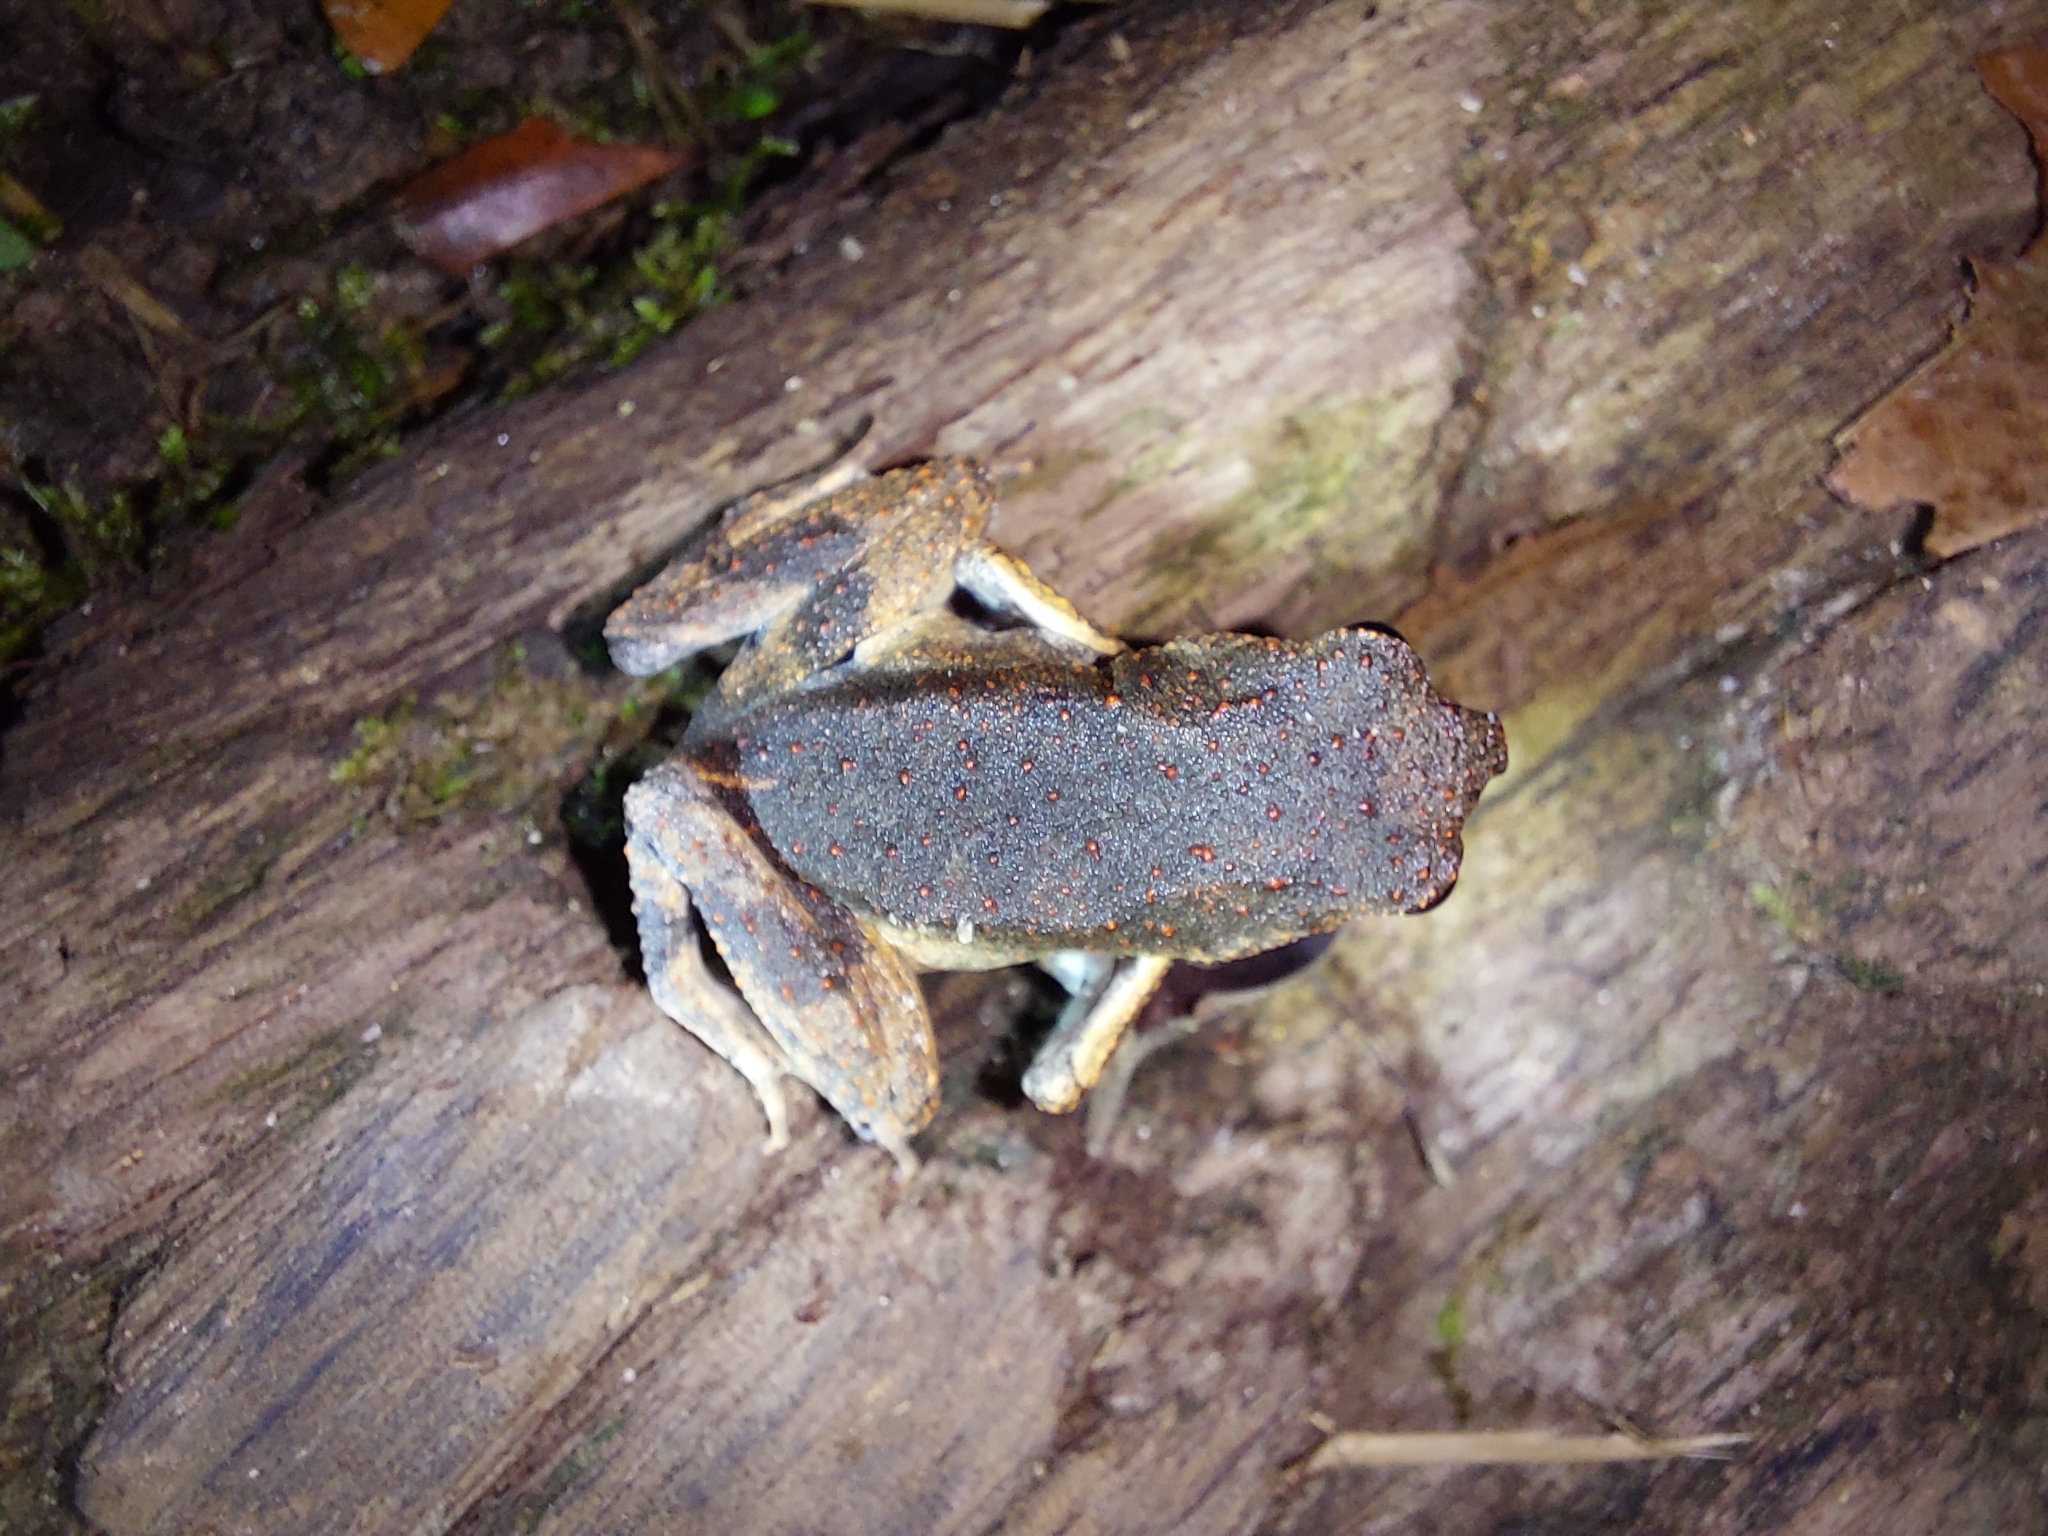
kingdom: Animalia
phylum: Chordata
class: Amphibia
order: Anura
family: Leptodactylidae
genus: Engystomops
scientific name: Engystomops petersi
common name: Peters’ dwarf frog
